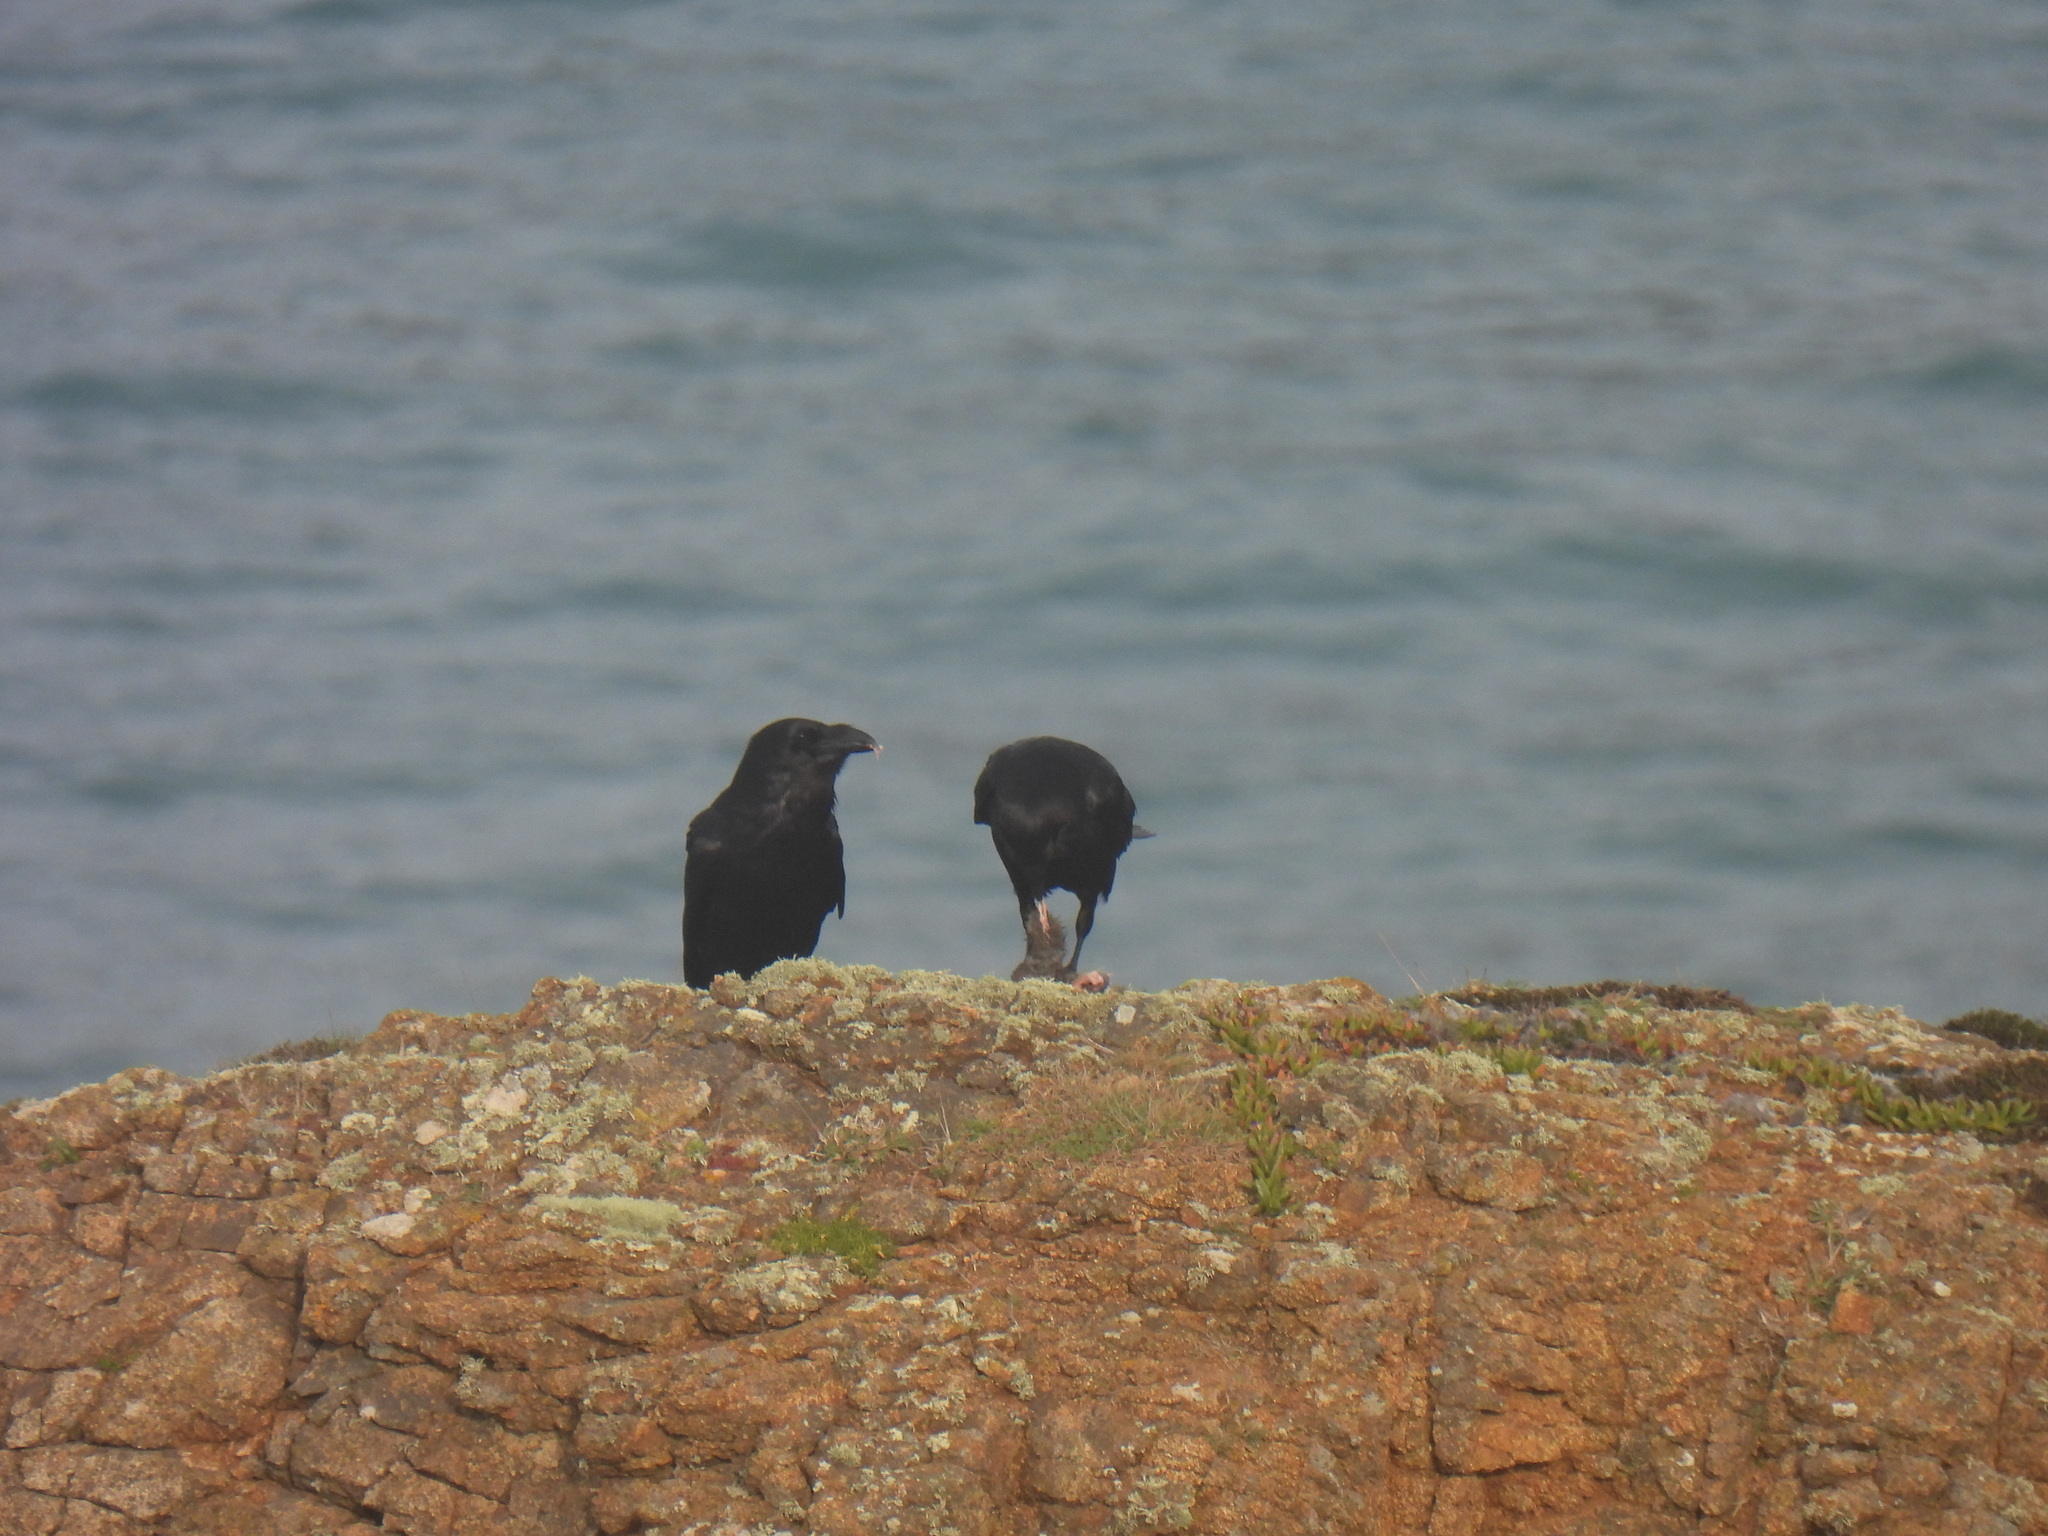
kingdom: Animalia
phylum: Chordata
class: Aves
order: Passeriformes
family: Corvidae
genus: Corvus
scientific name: Corvus corax
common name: Common raven
